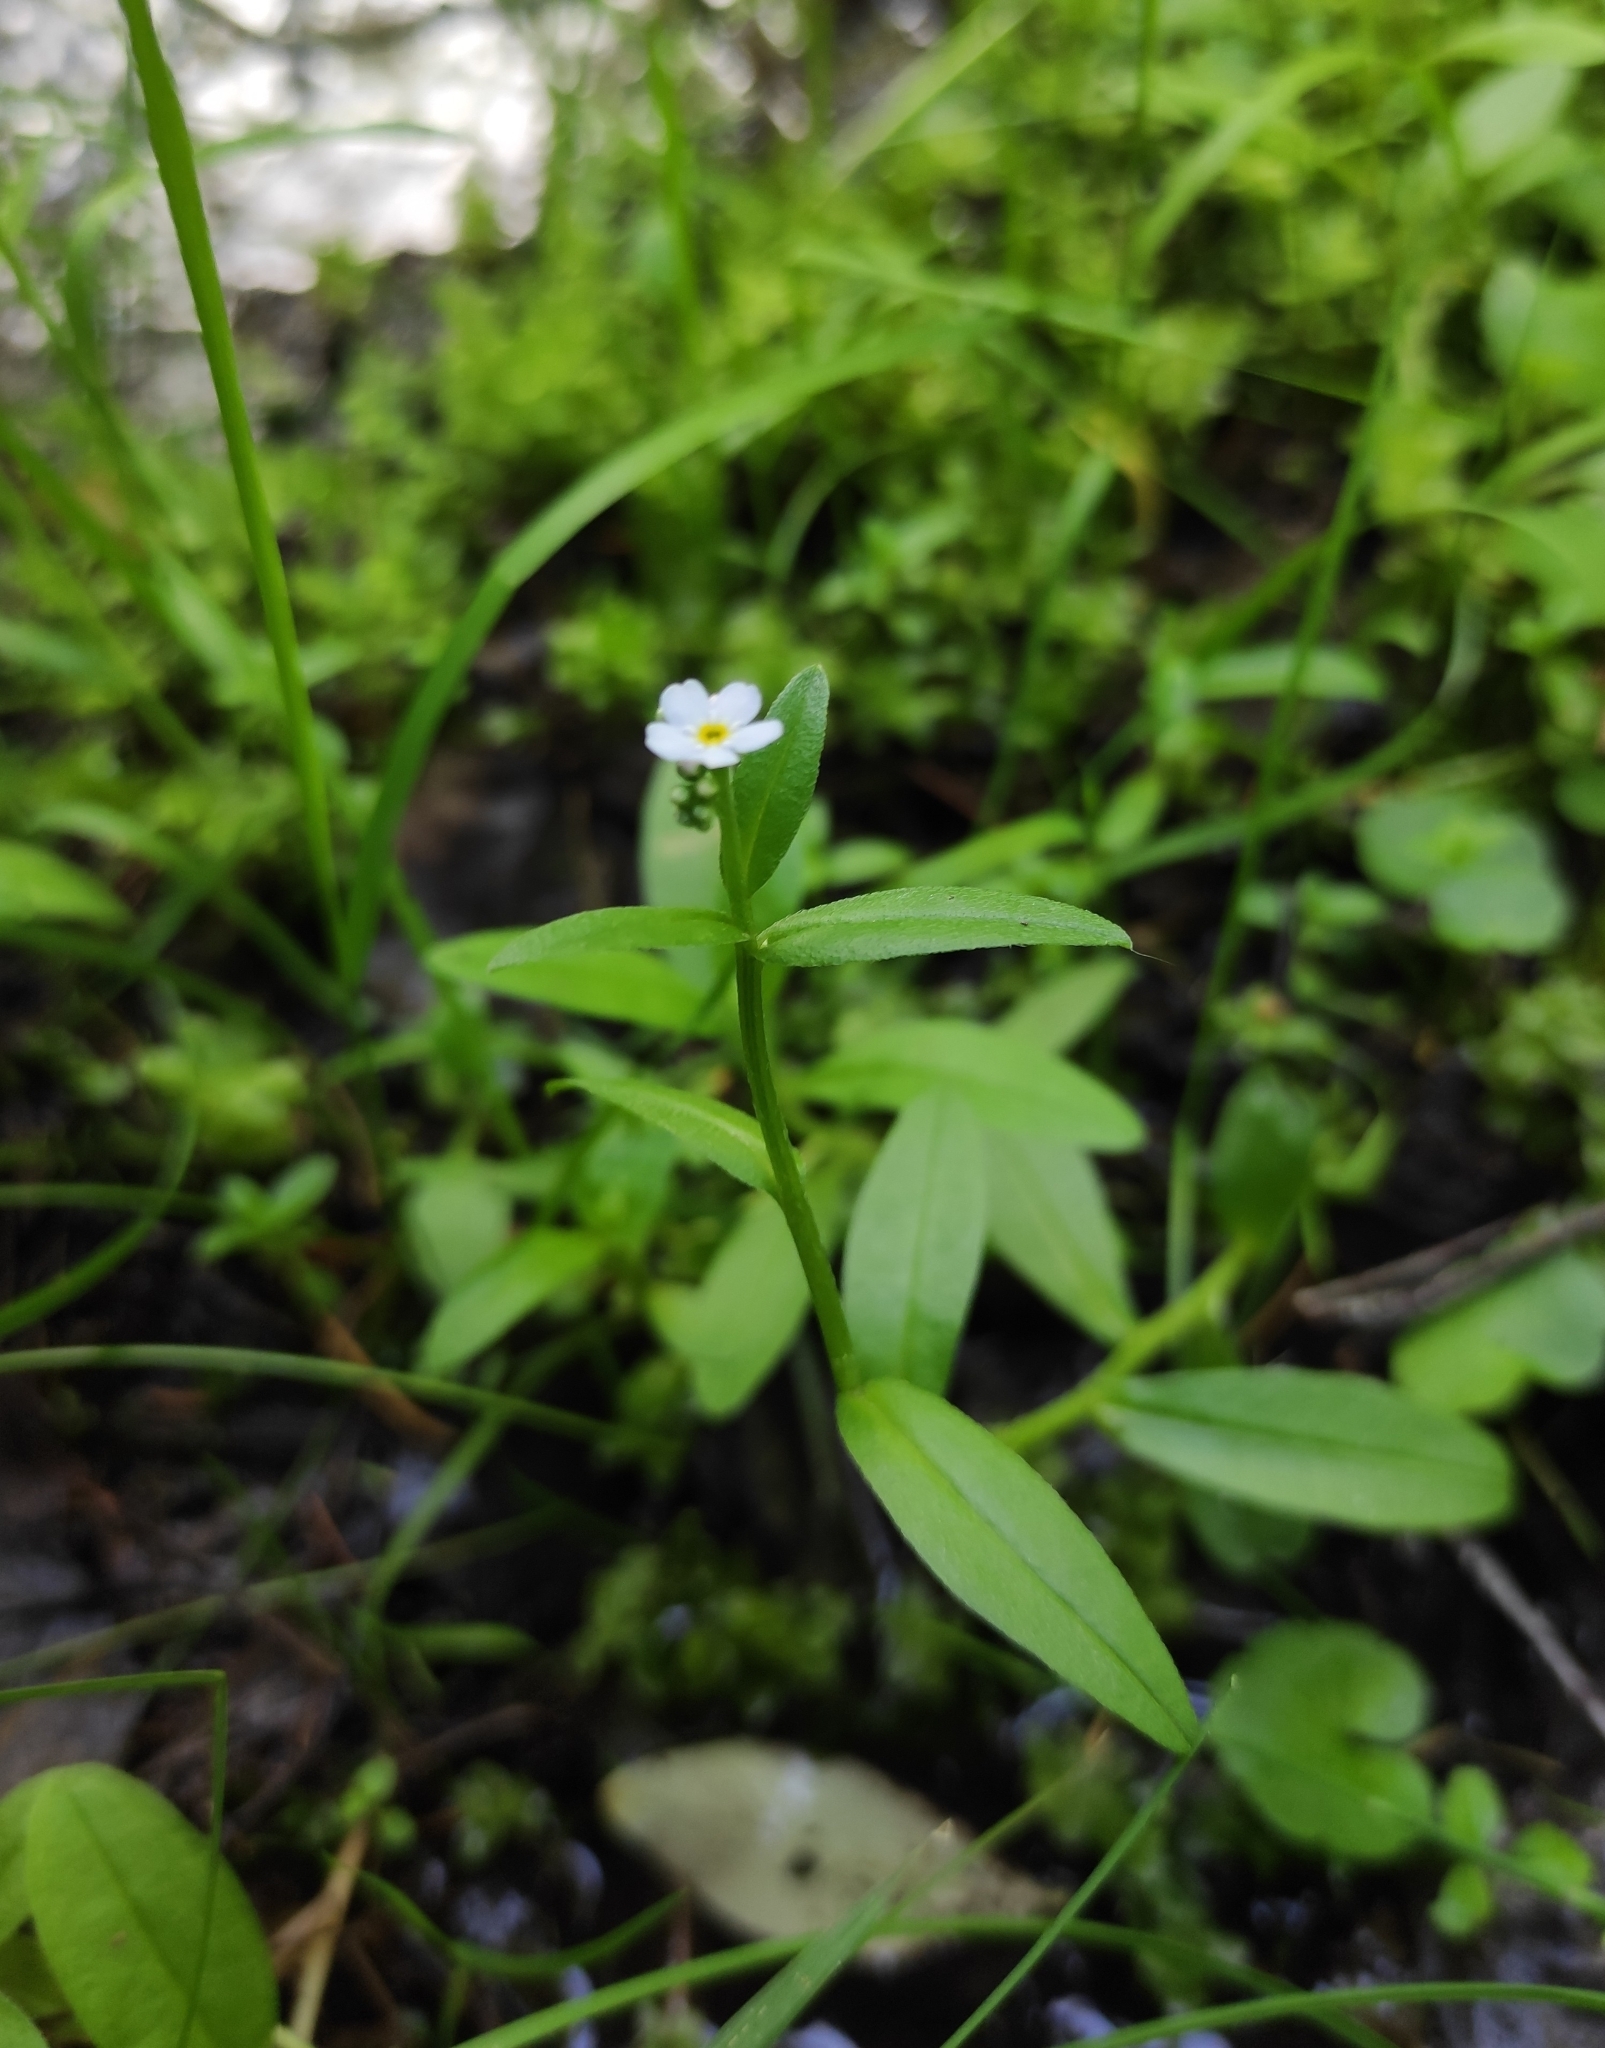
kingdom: Plantae
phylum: Tracheophyta
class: Magnoliopsida
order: Boraginales
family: Boraginaceae
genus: Myosotis
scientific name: Myosotis scorpioides
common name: Water forget-me-not
